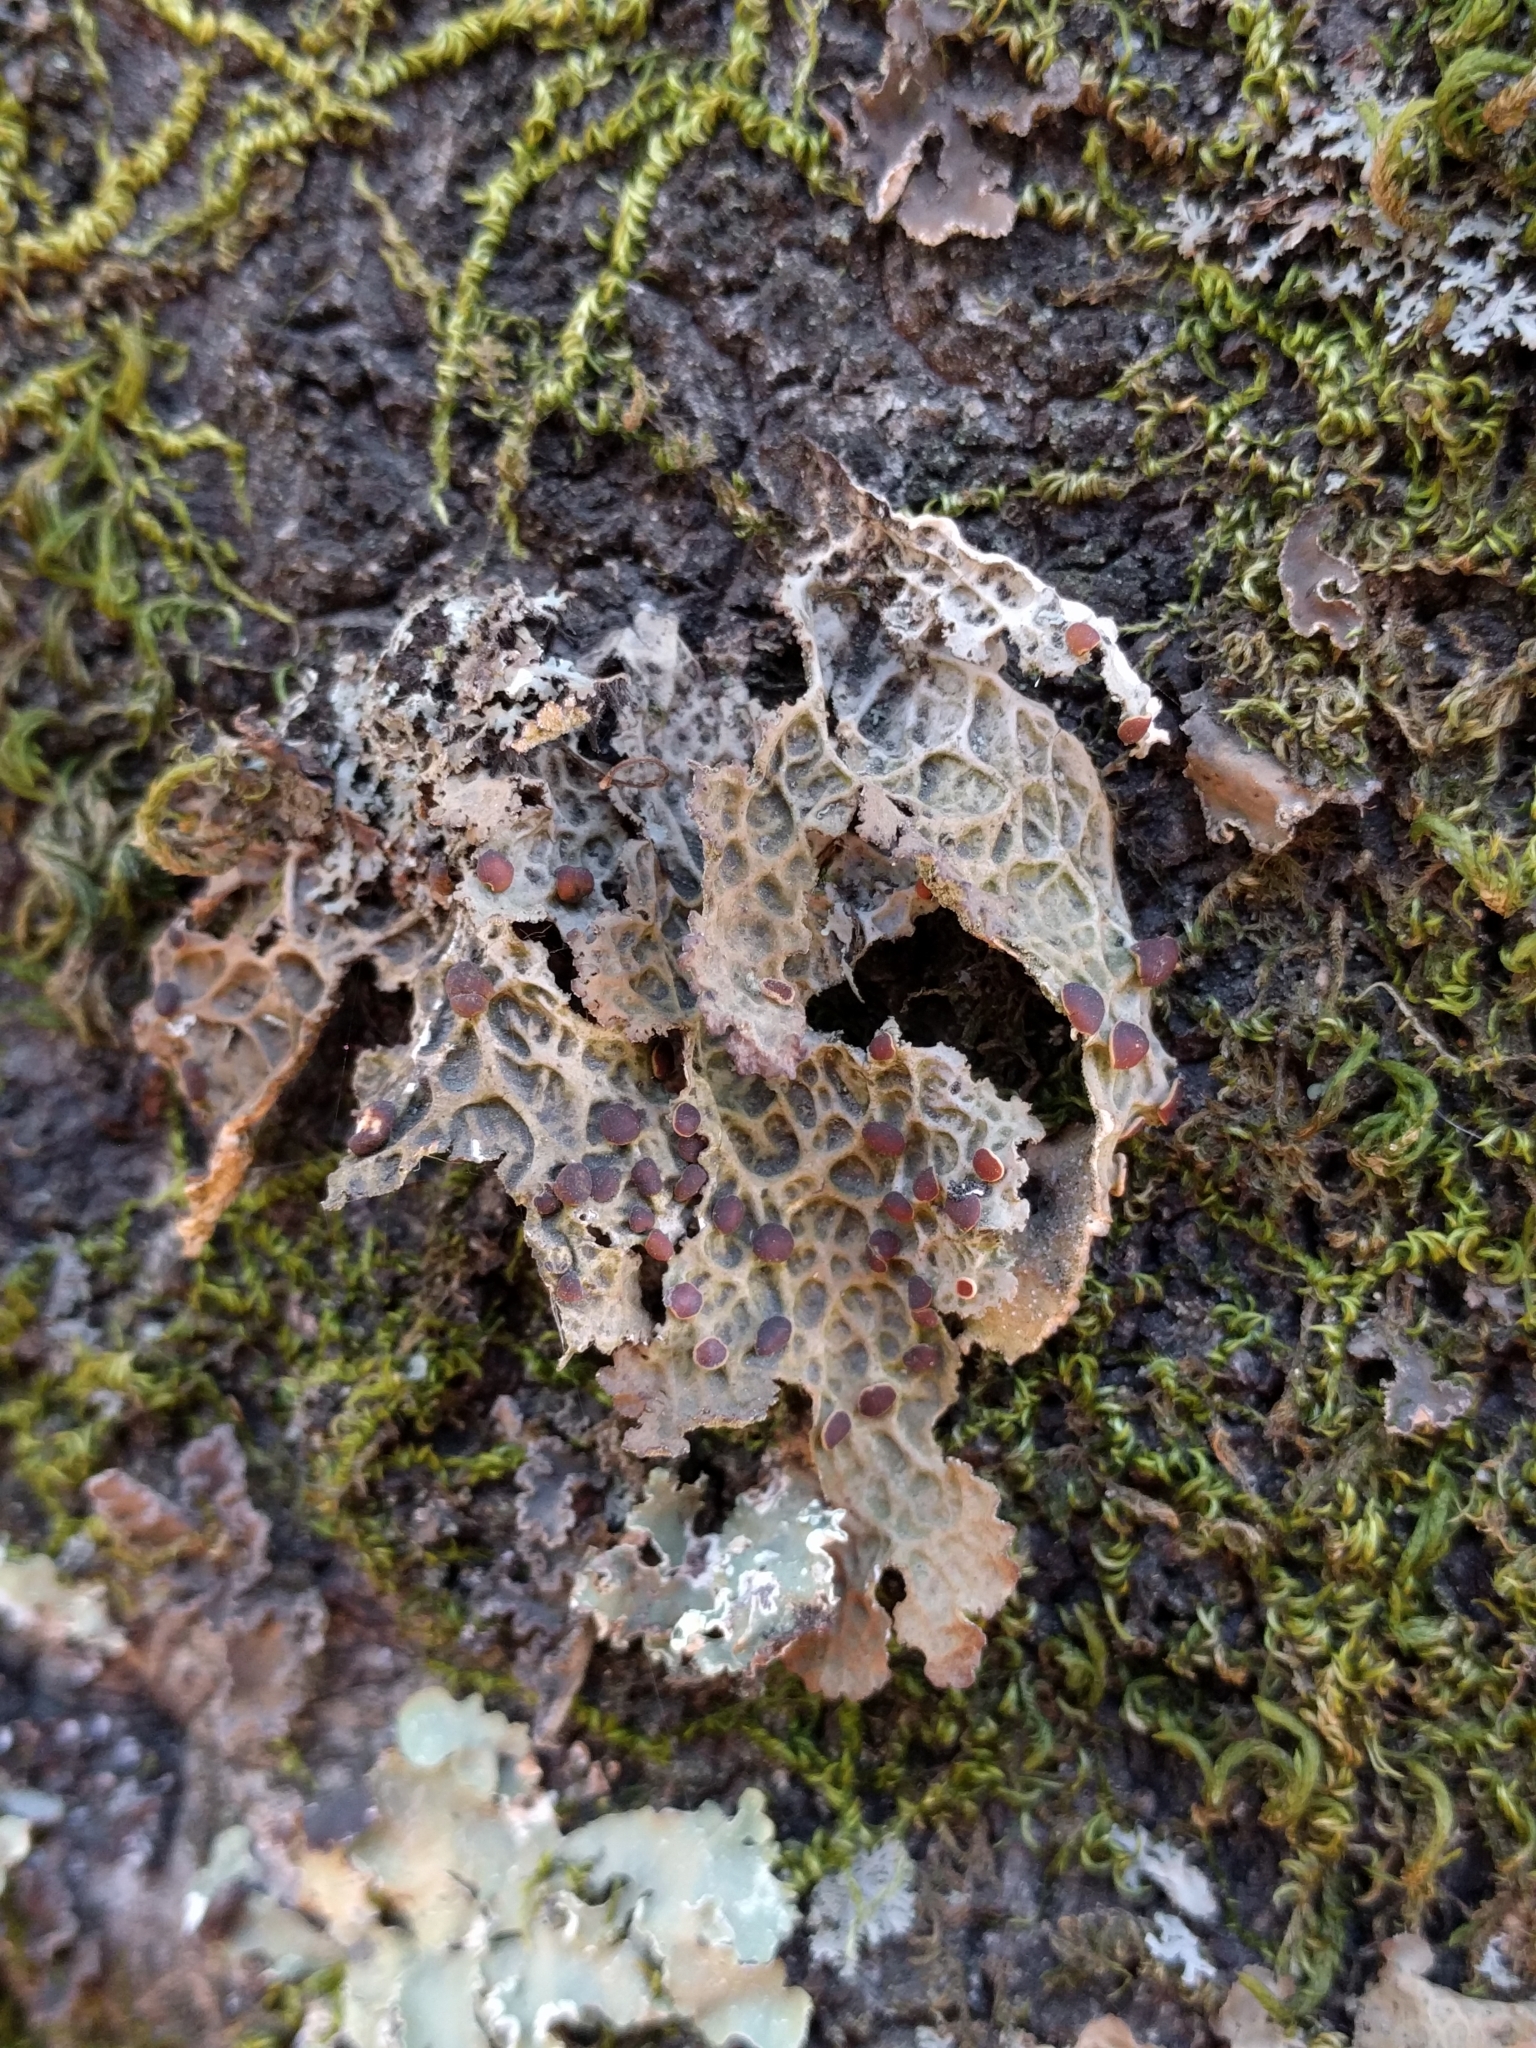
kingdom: Fungi
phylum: Ascomycota
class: Lecanoromycetes
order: Peltigerales
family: Lobariaceae
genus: Lobaria
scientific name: Lobaria anthraspis
